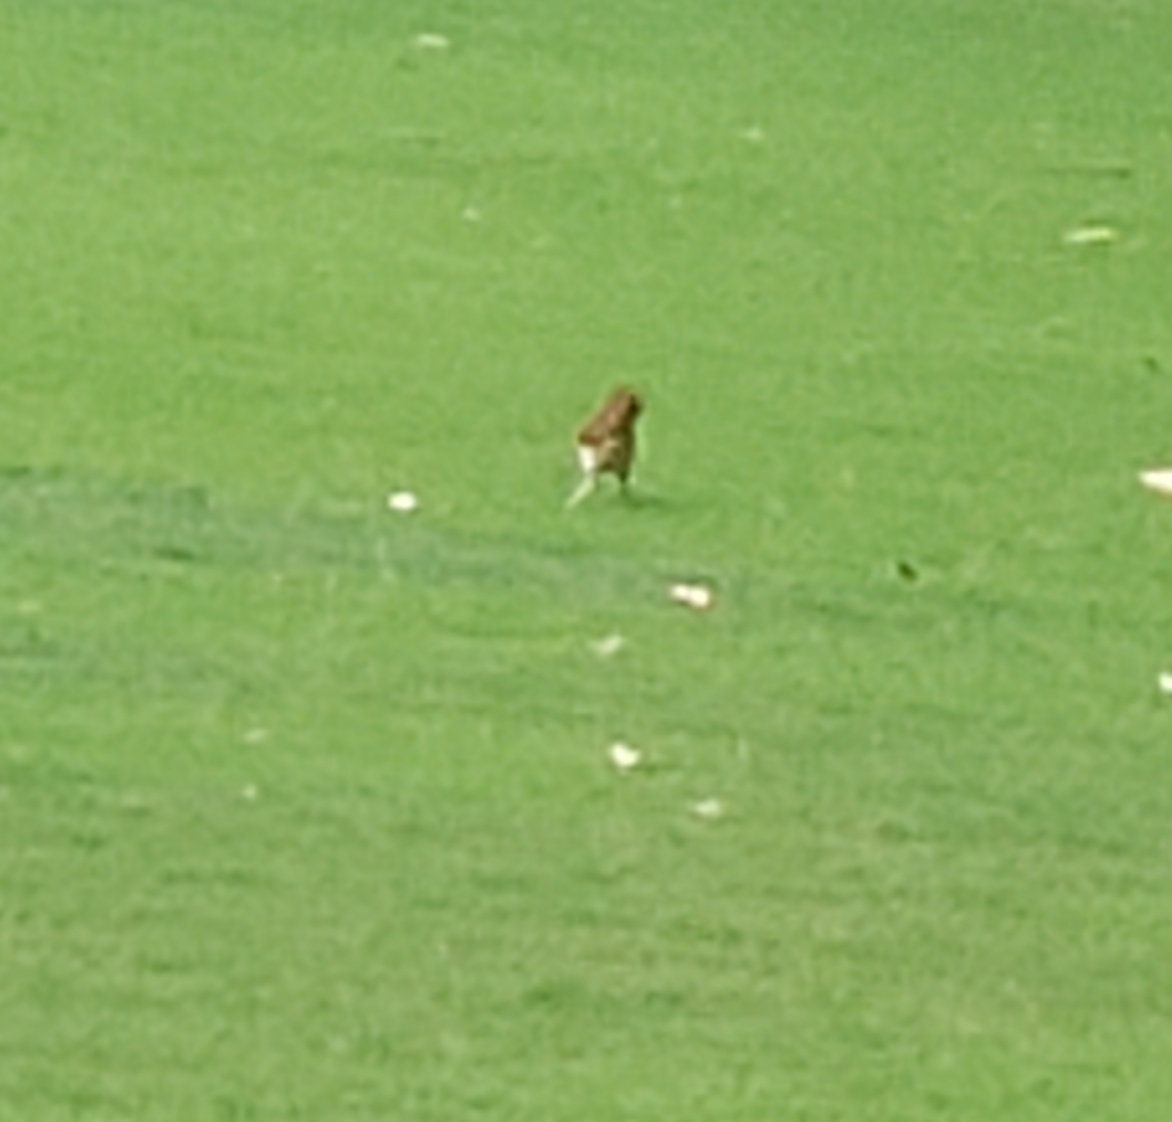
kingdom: Animalia
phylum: Chordata
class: Aves
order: Passeriformes
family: Mimidae
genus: Toxostoma
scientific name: Toxostoma rufum
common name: Brown thrasher
